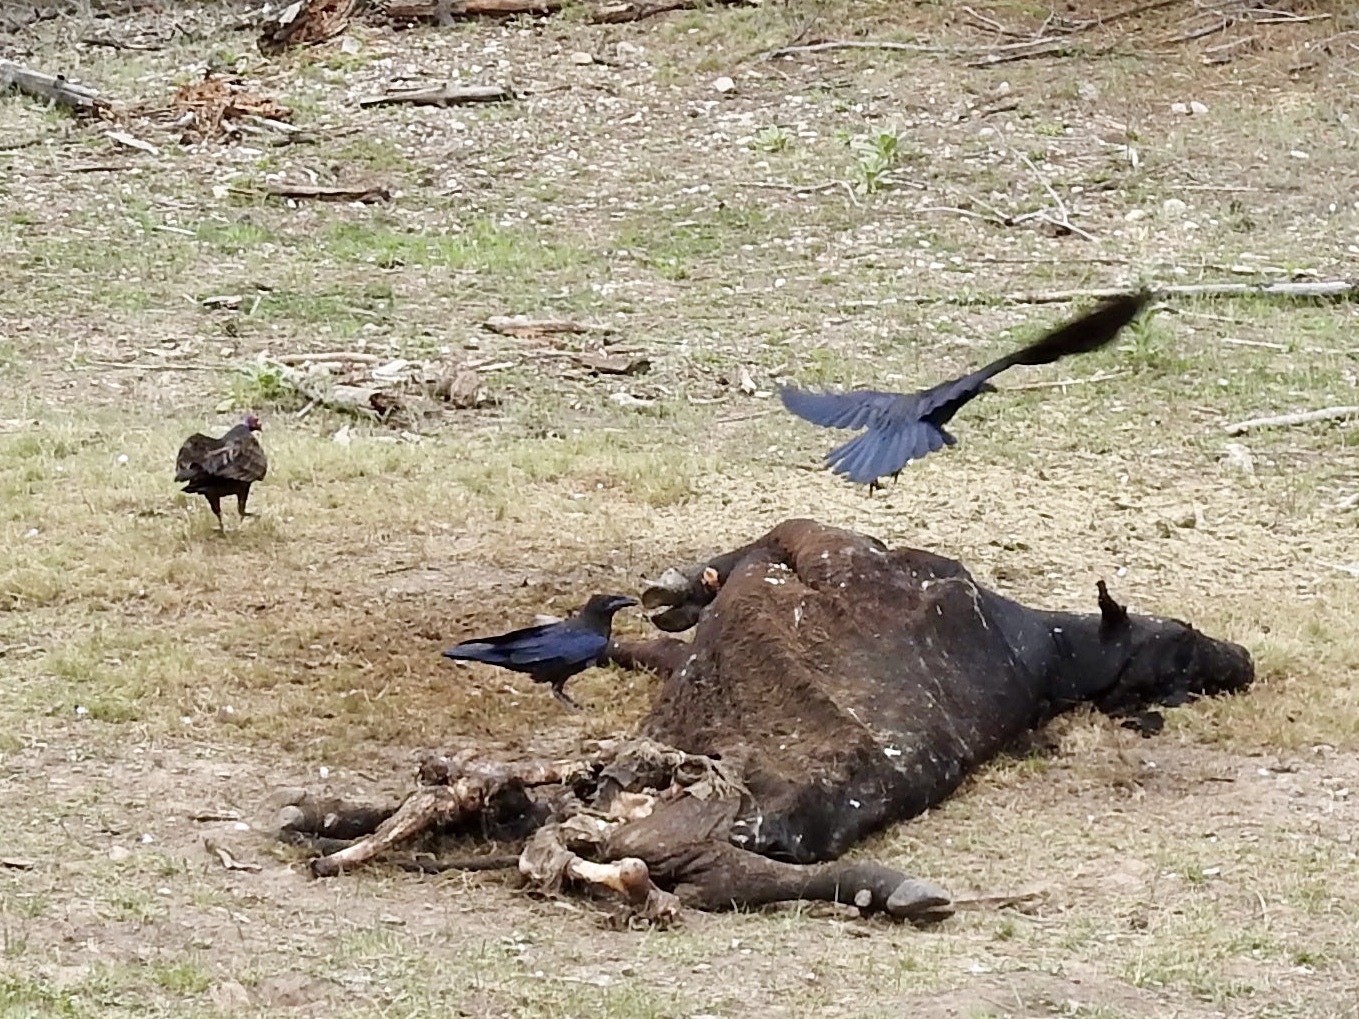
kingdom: Animalia
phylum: Chordata
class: Aves
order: Passeriformes
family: Corvidae
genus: Corvus
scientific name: Corvus corax
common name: Common raven
